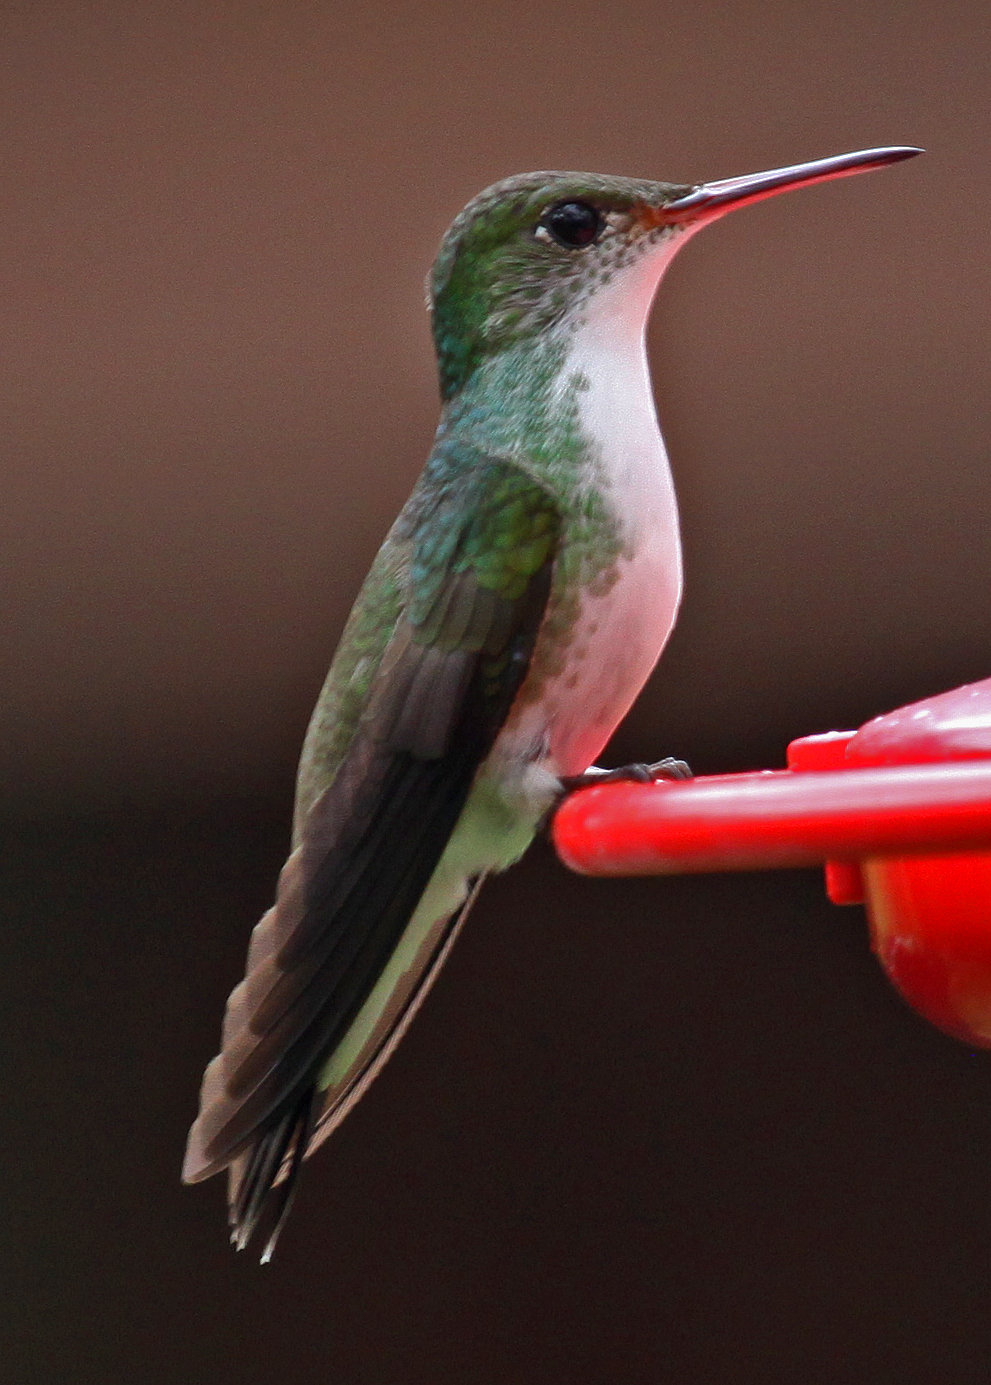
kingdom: Animalia
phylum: Chordata
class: Aves
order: Apodiformes
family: Trochilidae
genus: Chlorestes
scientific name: Chlorestes candida
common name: White-bellied emerald
